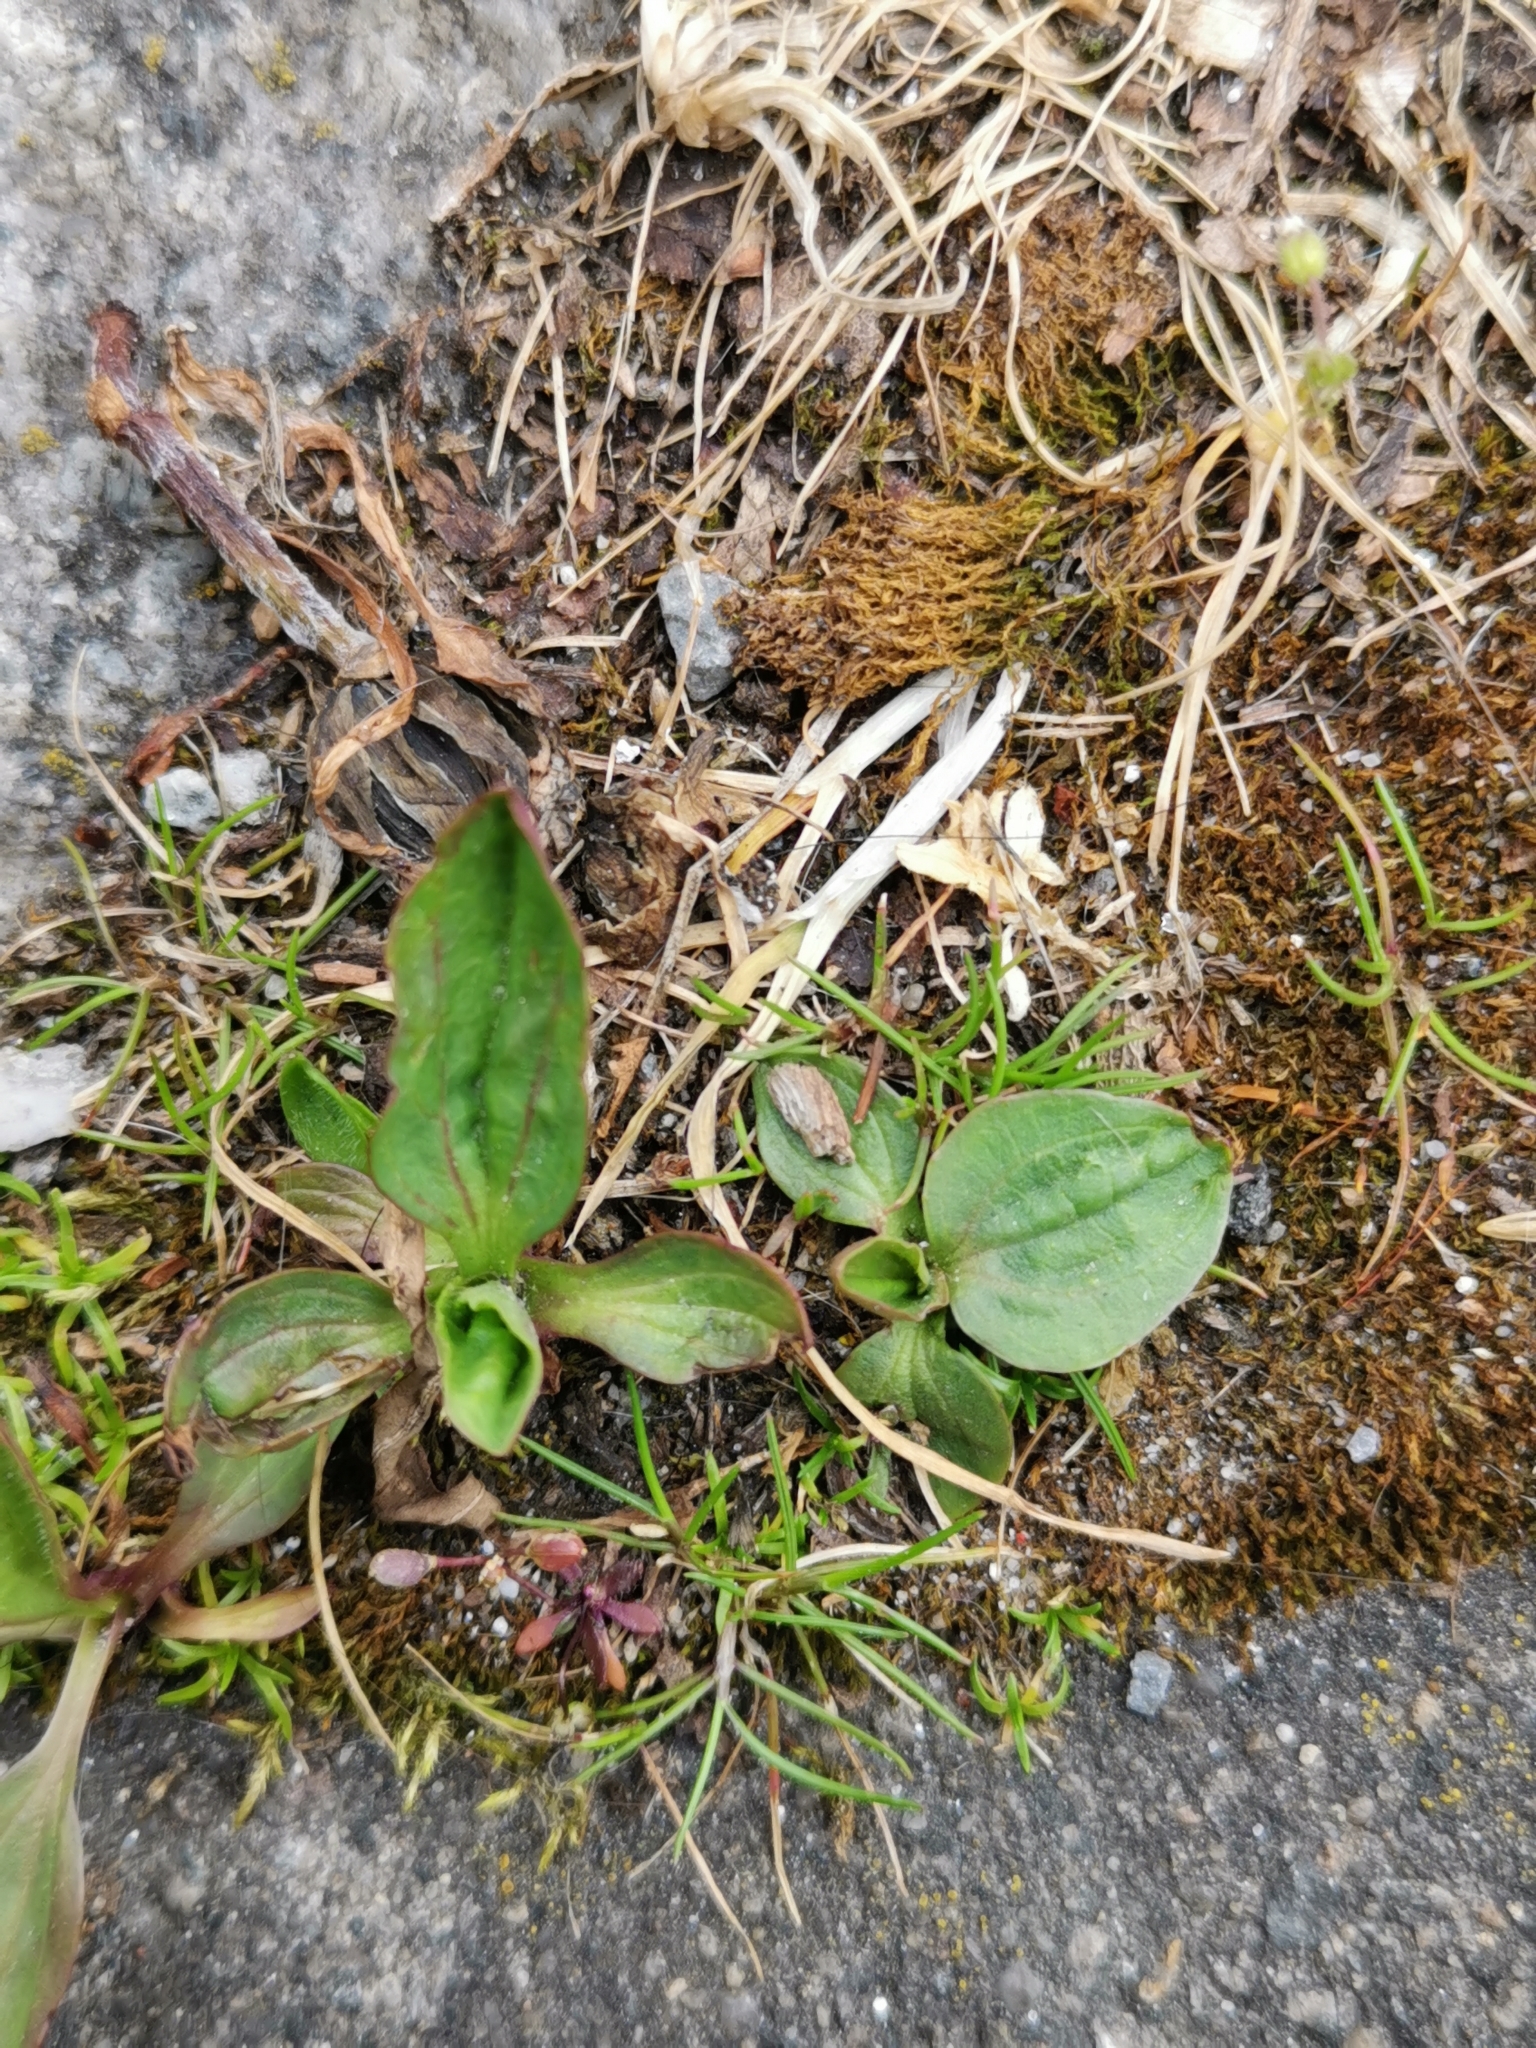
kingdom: Plantae
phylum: Tracheophyta
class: Magnoliopsida
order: Lamiales
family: Plantaginaceae
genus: Plantago
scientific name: Plantago major
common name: Common plantain
